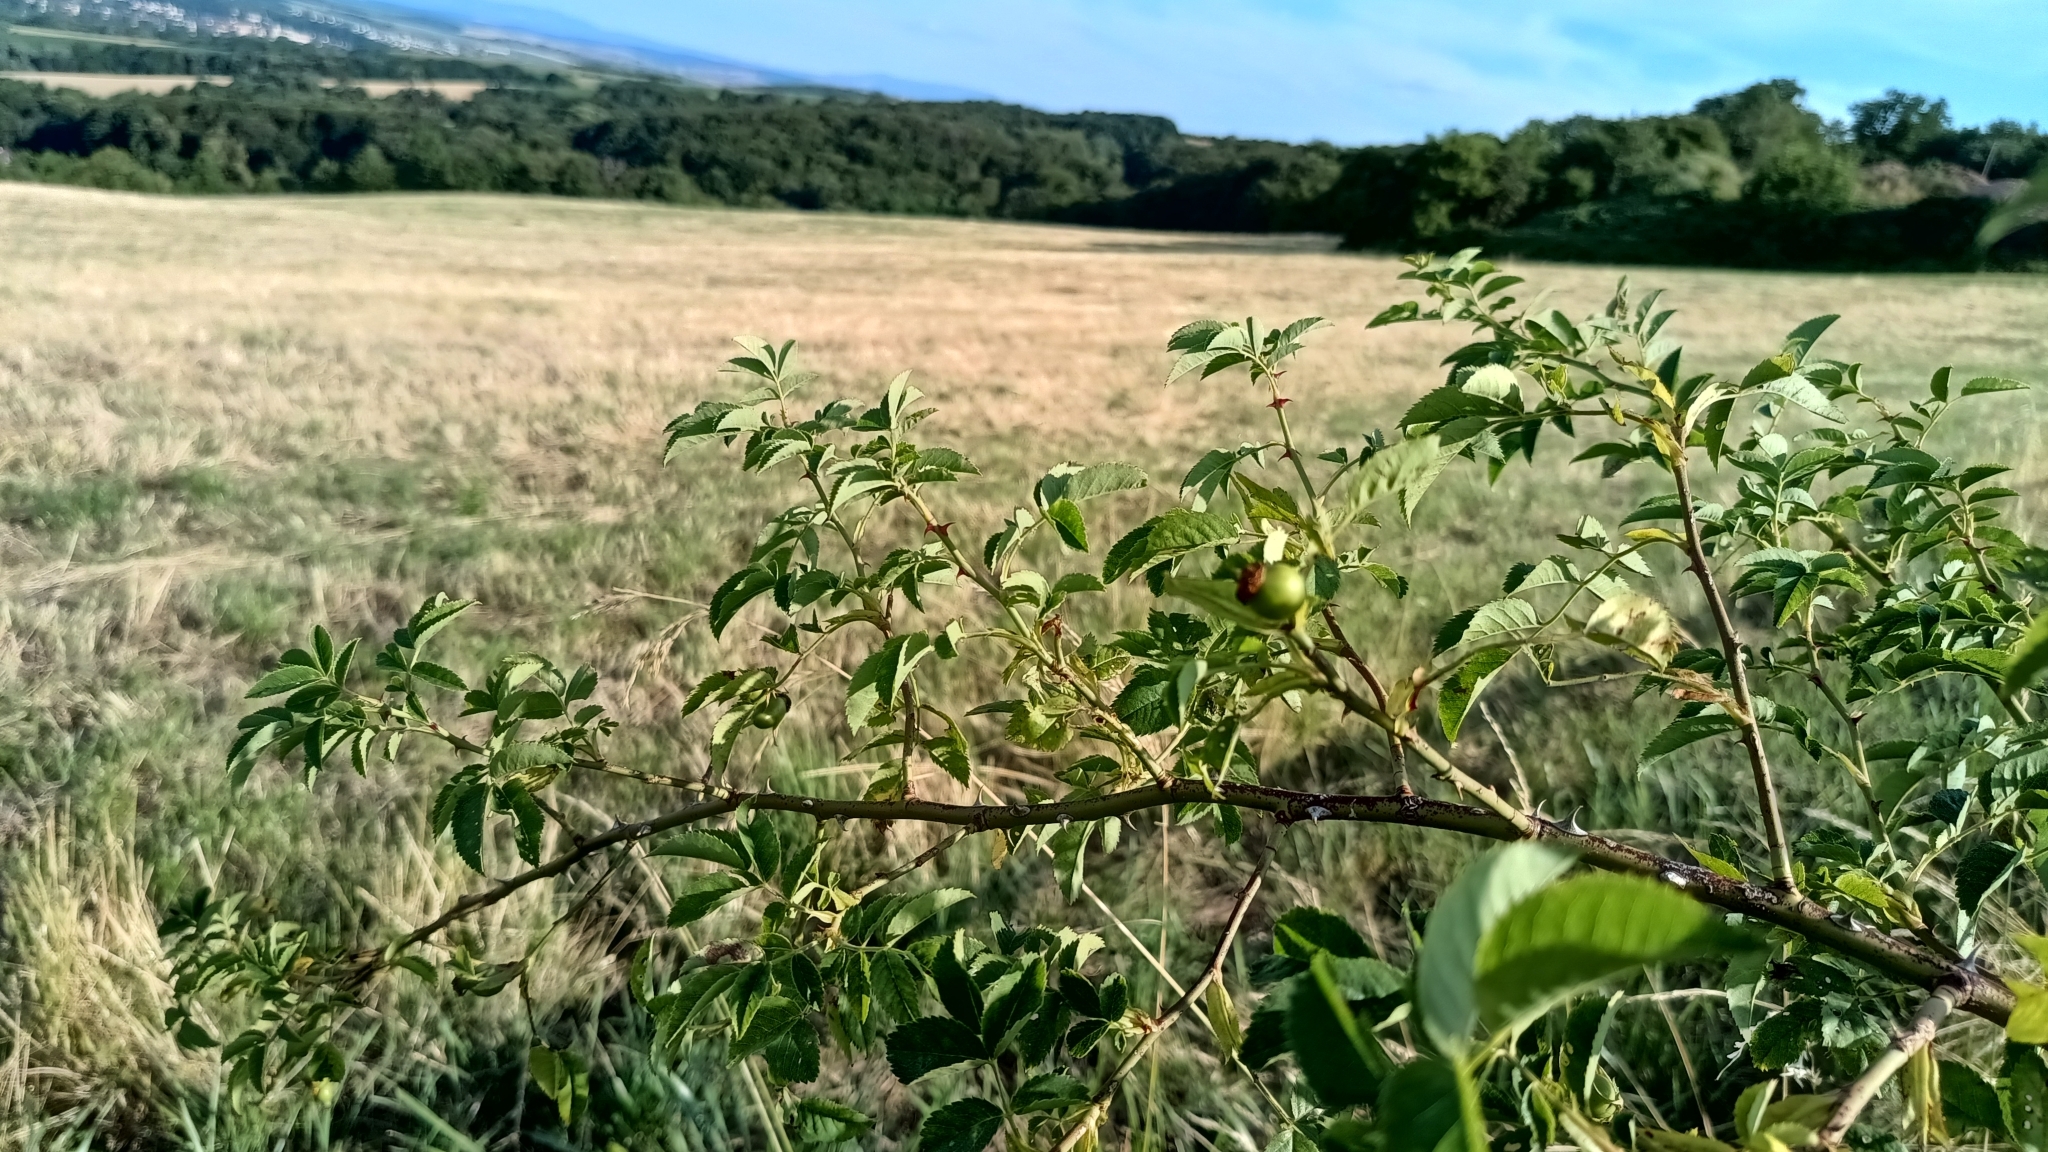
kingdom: Plantae
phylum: Tracheophyta
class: Magnoliopsida
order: Rosales
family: Rosaceae
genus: Rosa
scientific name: Rosa canina
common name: Dog rose
